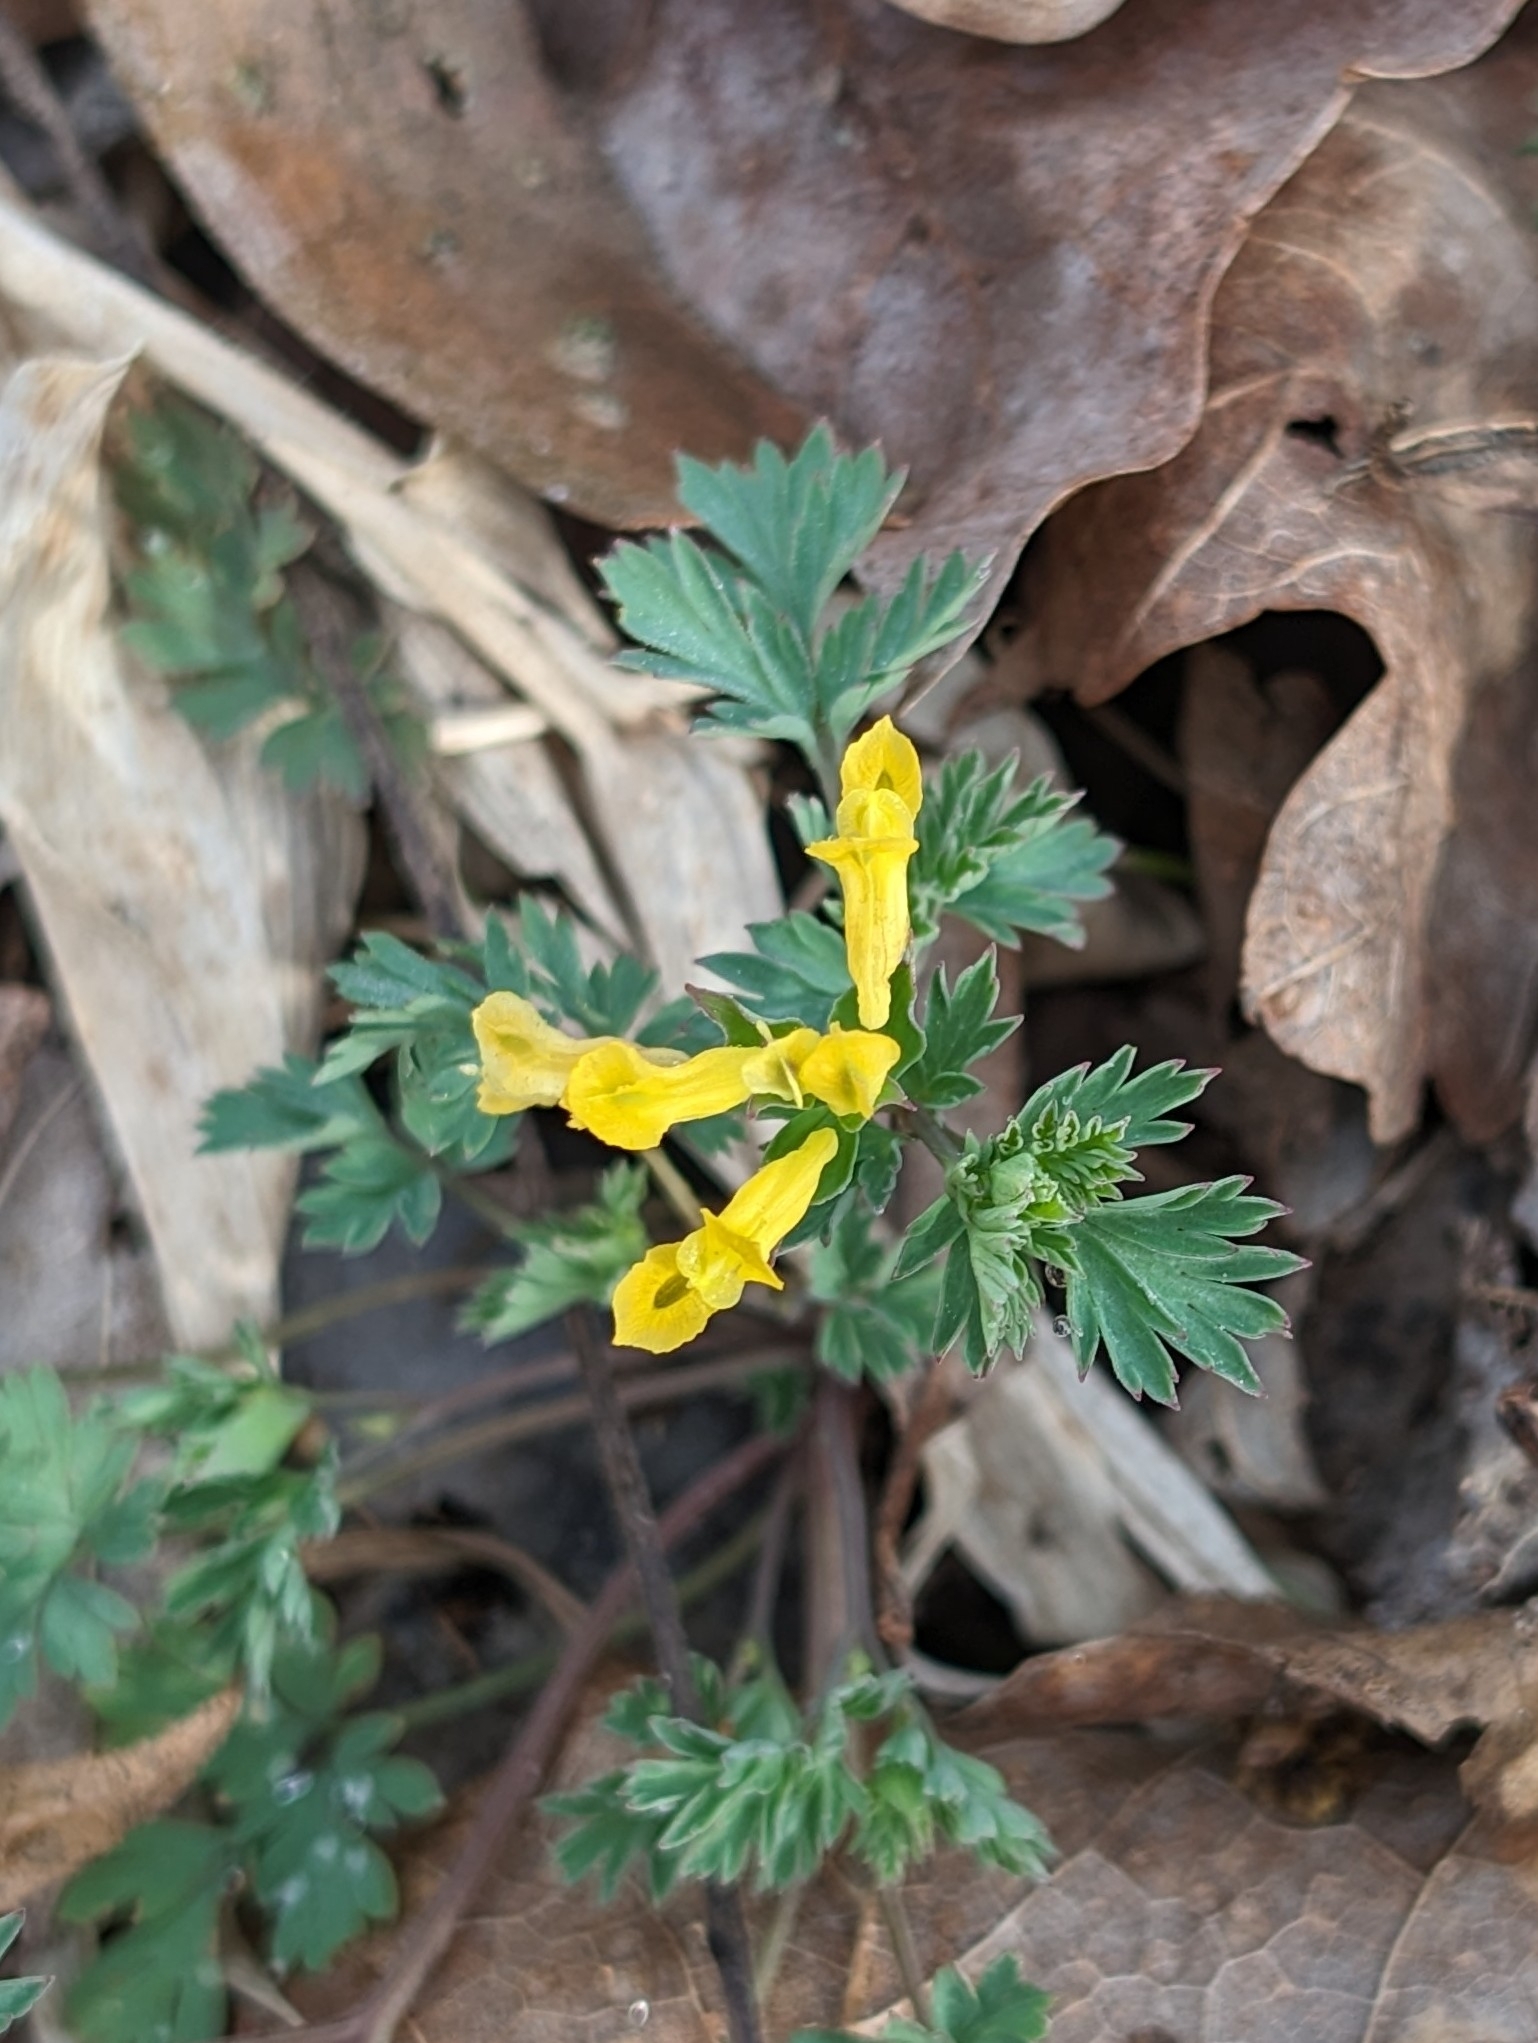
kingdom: Plantae
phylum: Tracheophyta
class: Magnoliopsida
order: Ranunculales
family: Papaveraceae
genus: Corydalis
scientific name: Corydalis flavula
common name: Yellow corydalis
